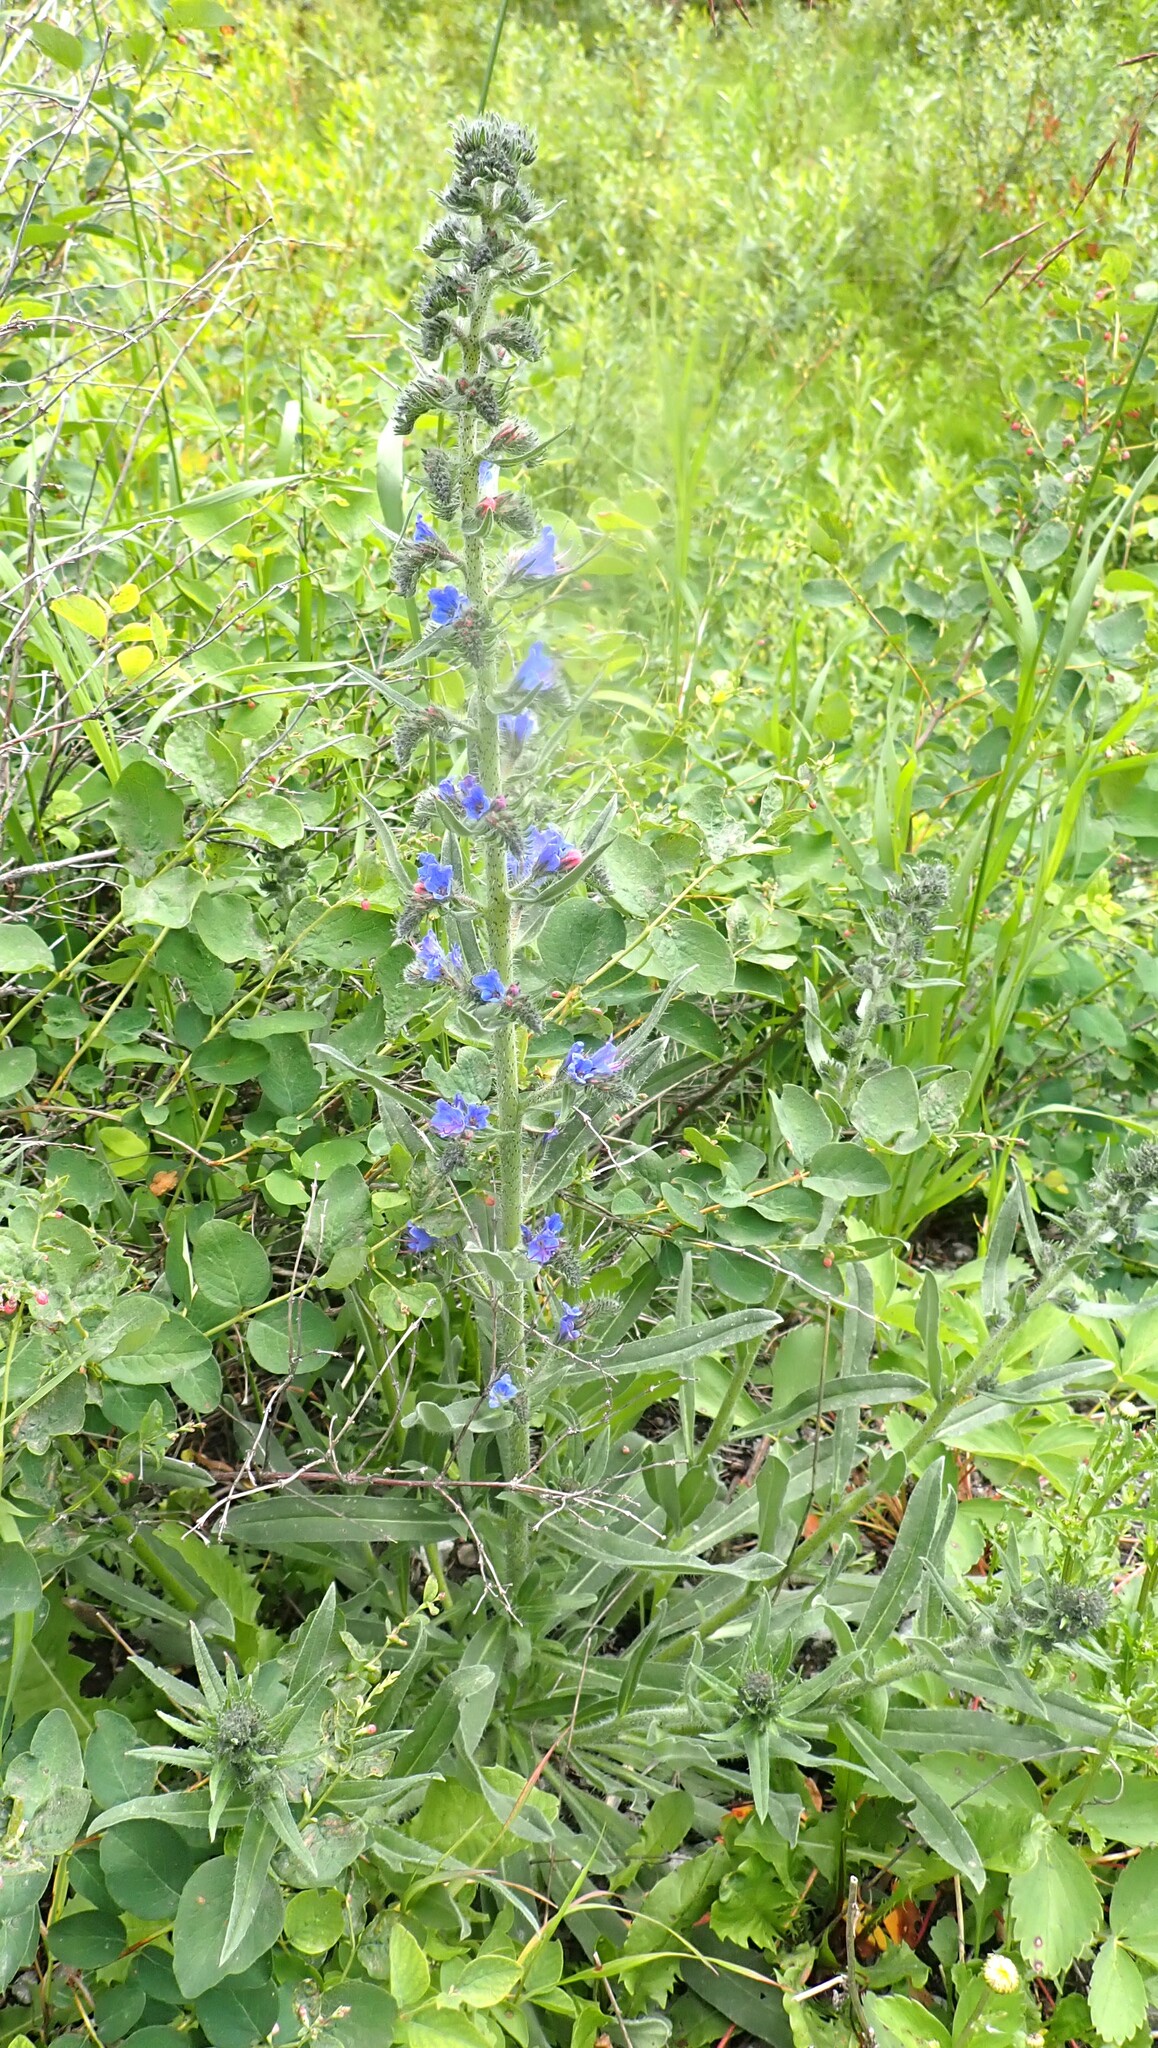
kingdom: Plantae
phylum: Tracheophyta
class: Magnoliopsida
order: Boraginales
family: Boraginaceae
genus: Echium
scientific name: Echium vulgare
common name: Common viper's bugloss
